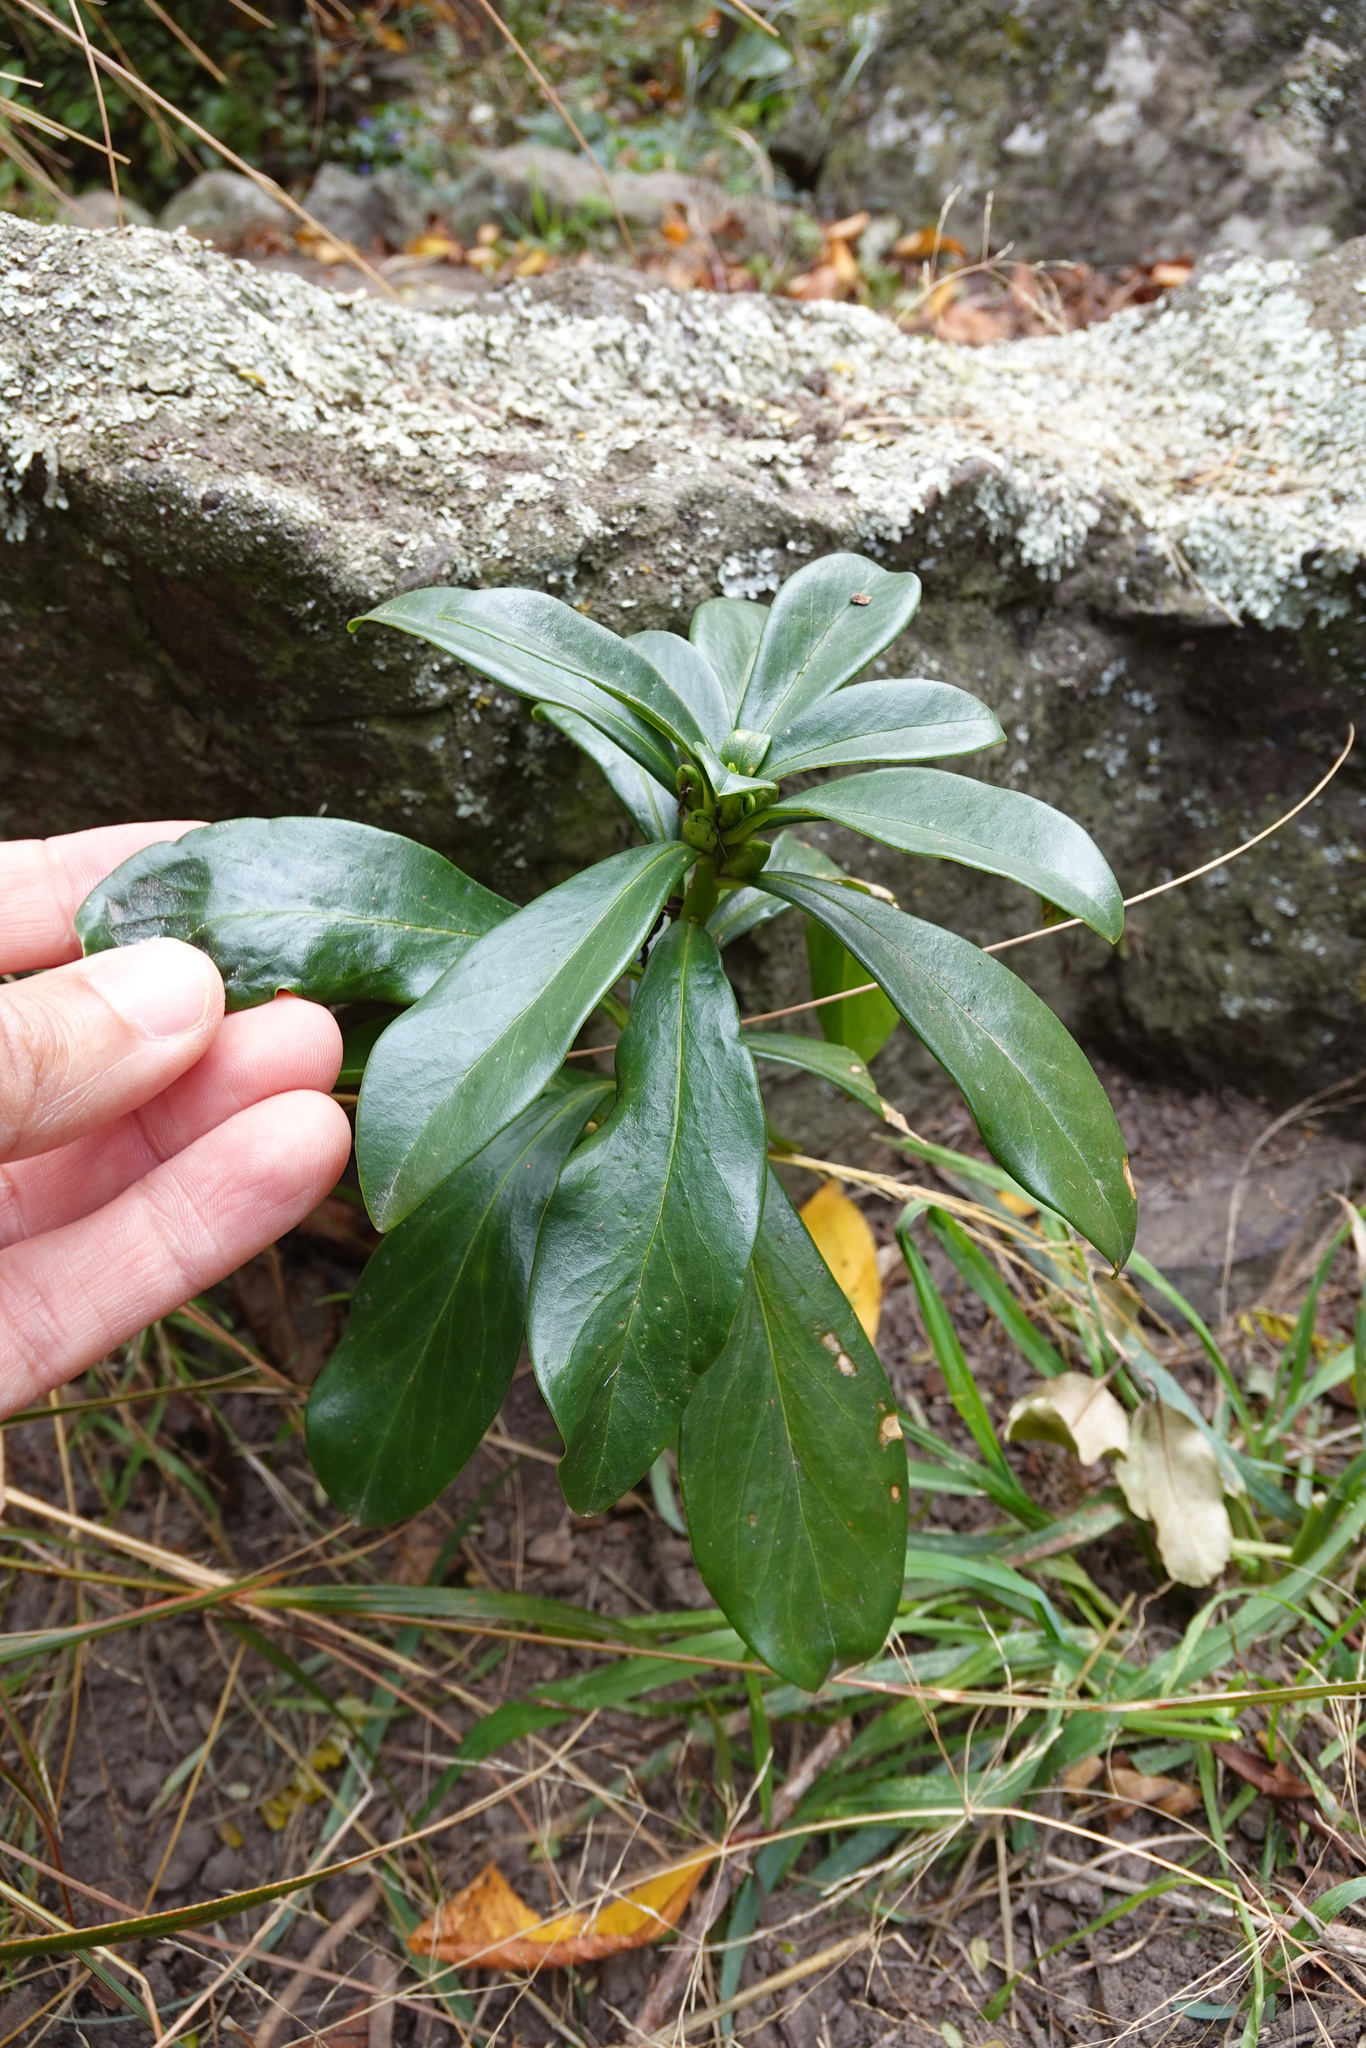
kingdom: Plantae
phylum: Tracheophyta
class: Magnoliopsida
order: Malvales
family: Thymelaeaceae
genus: Daphne
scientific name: Daphne laureola
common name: Spurge-laurel
